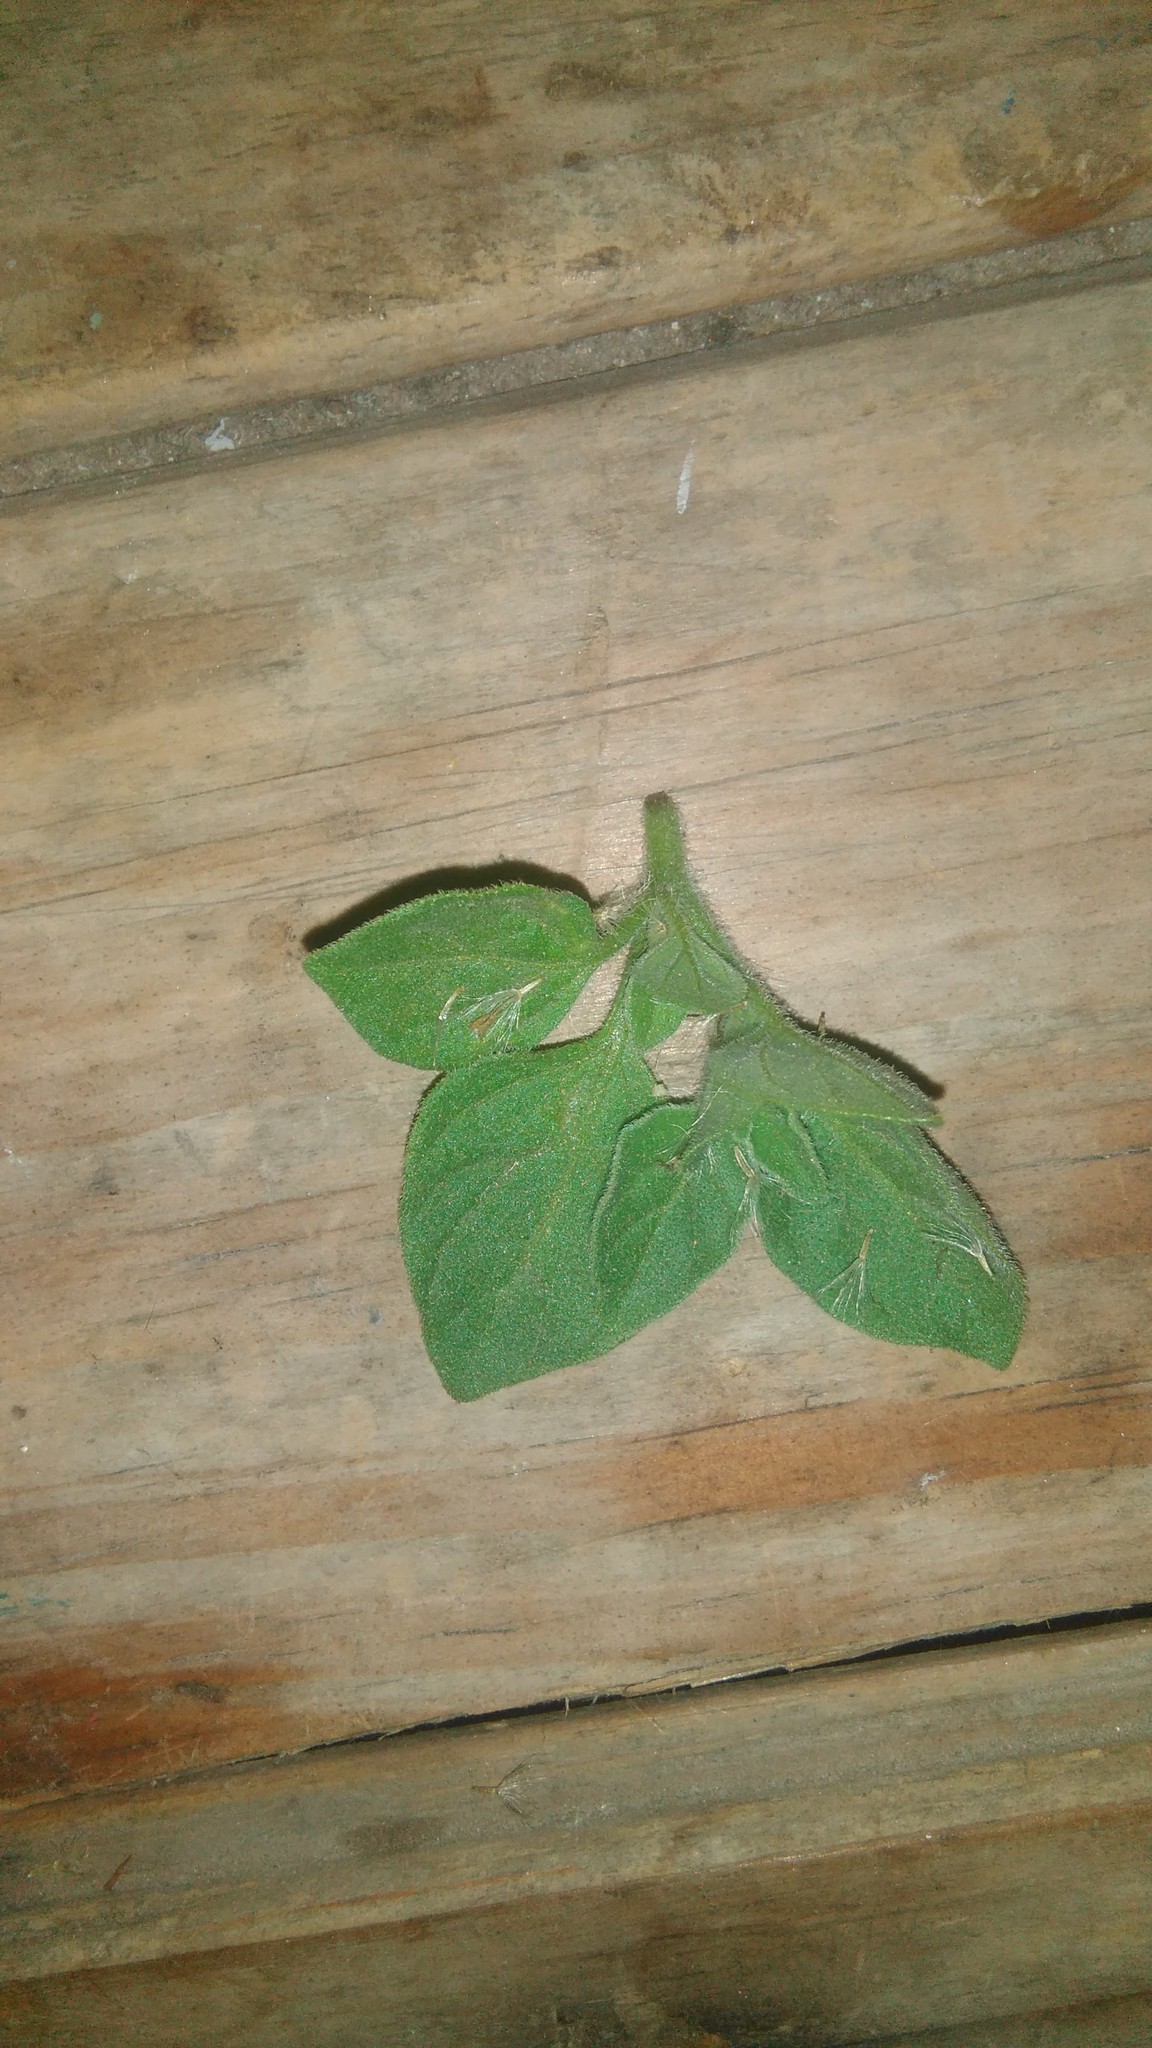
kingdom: Plantae
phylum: Tracheophyta
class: Magnoliopsida
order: Solanales
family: Solanaceae
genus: Salpichroa
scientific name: Salpichroa origanifolia
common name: Lily-of-the-valley-vine
